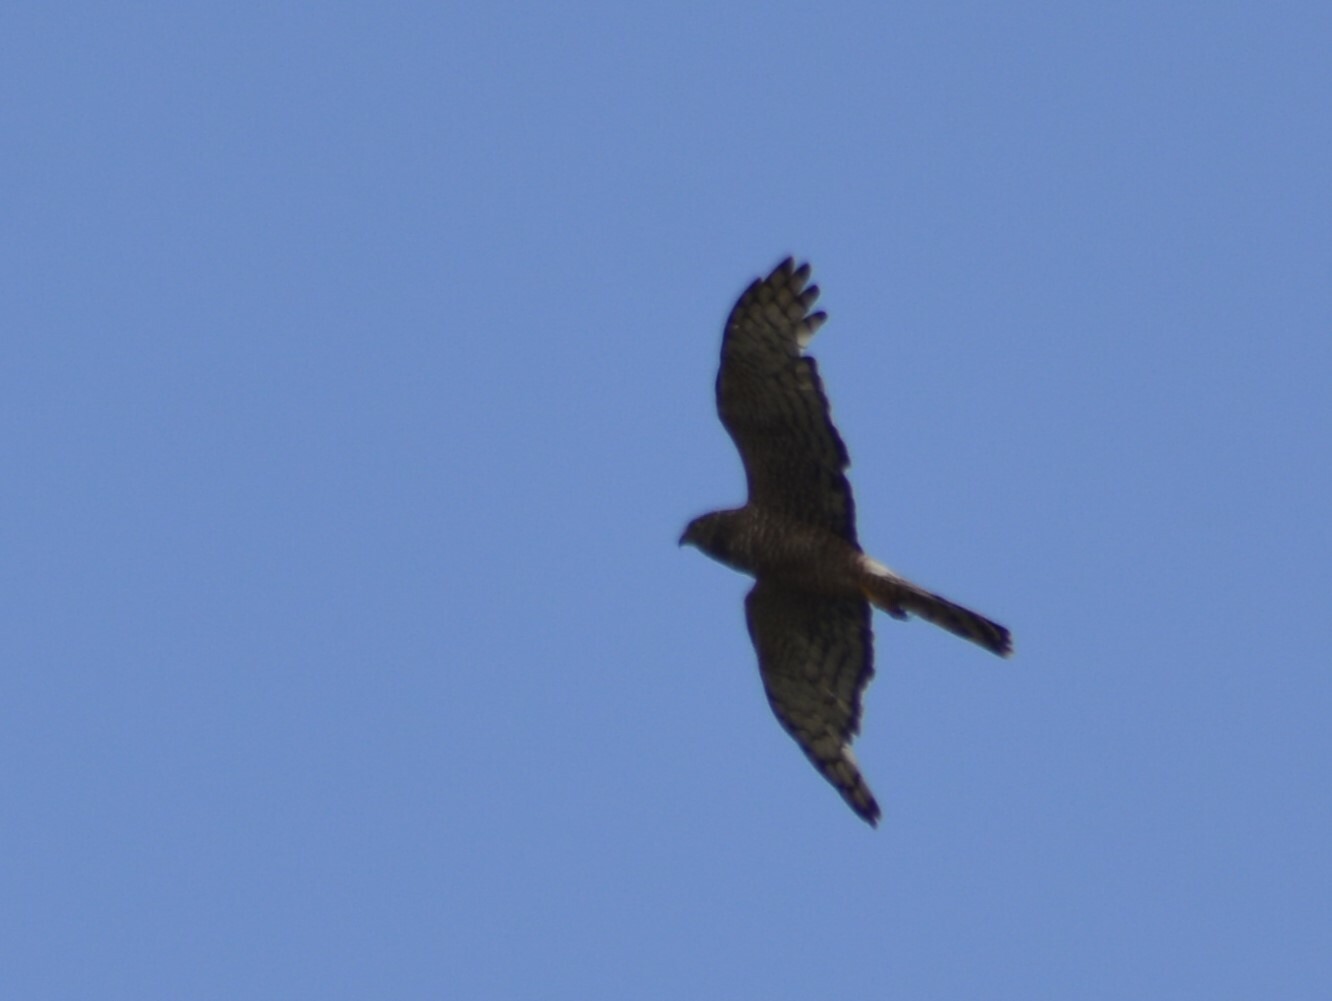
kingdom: Animalia
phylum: Chordata
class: Aves
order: Accipitriformes
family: Accipitridae
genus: Circus
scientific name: Circus cinereus
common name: Cinereous harrier
